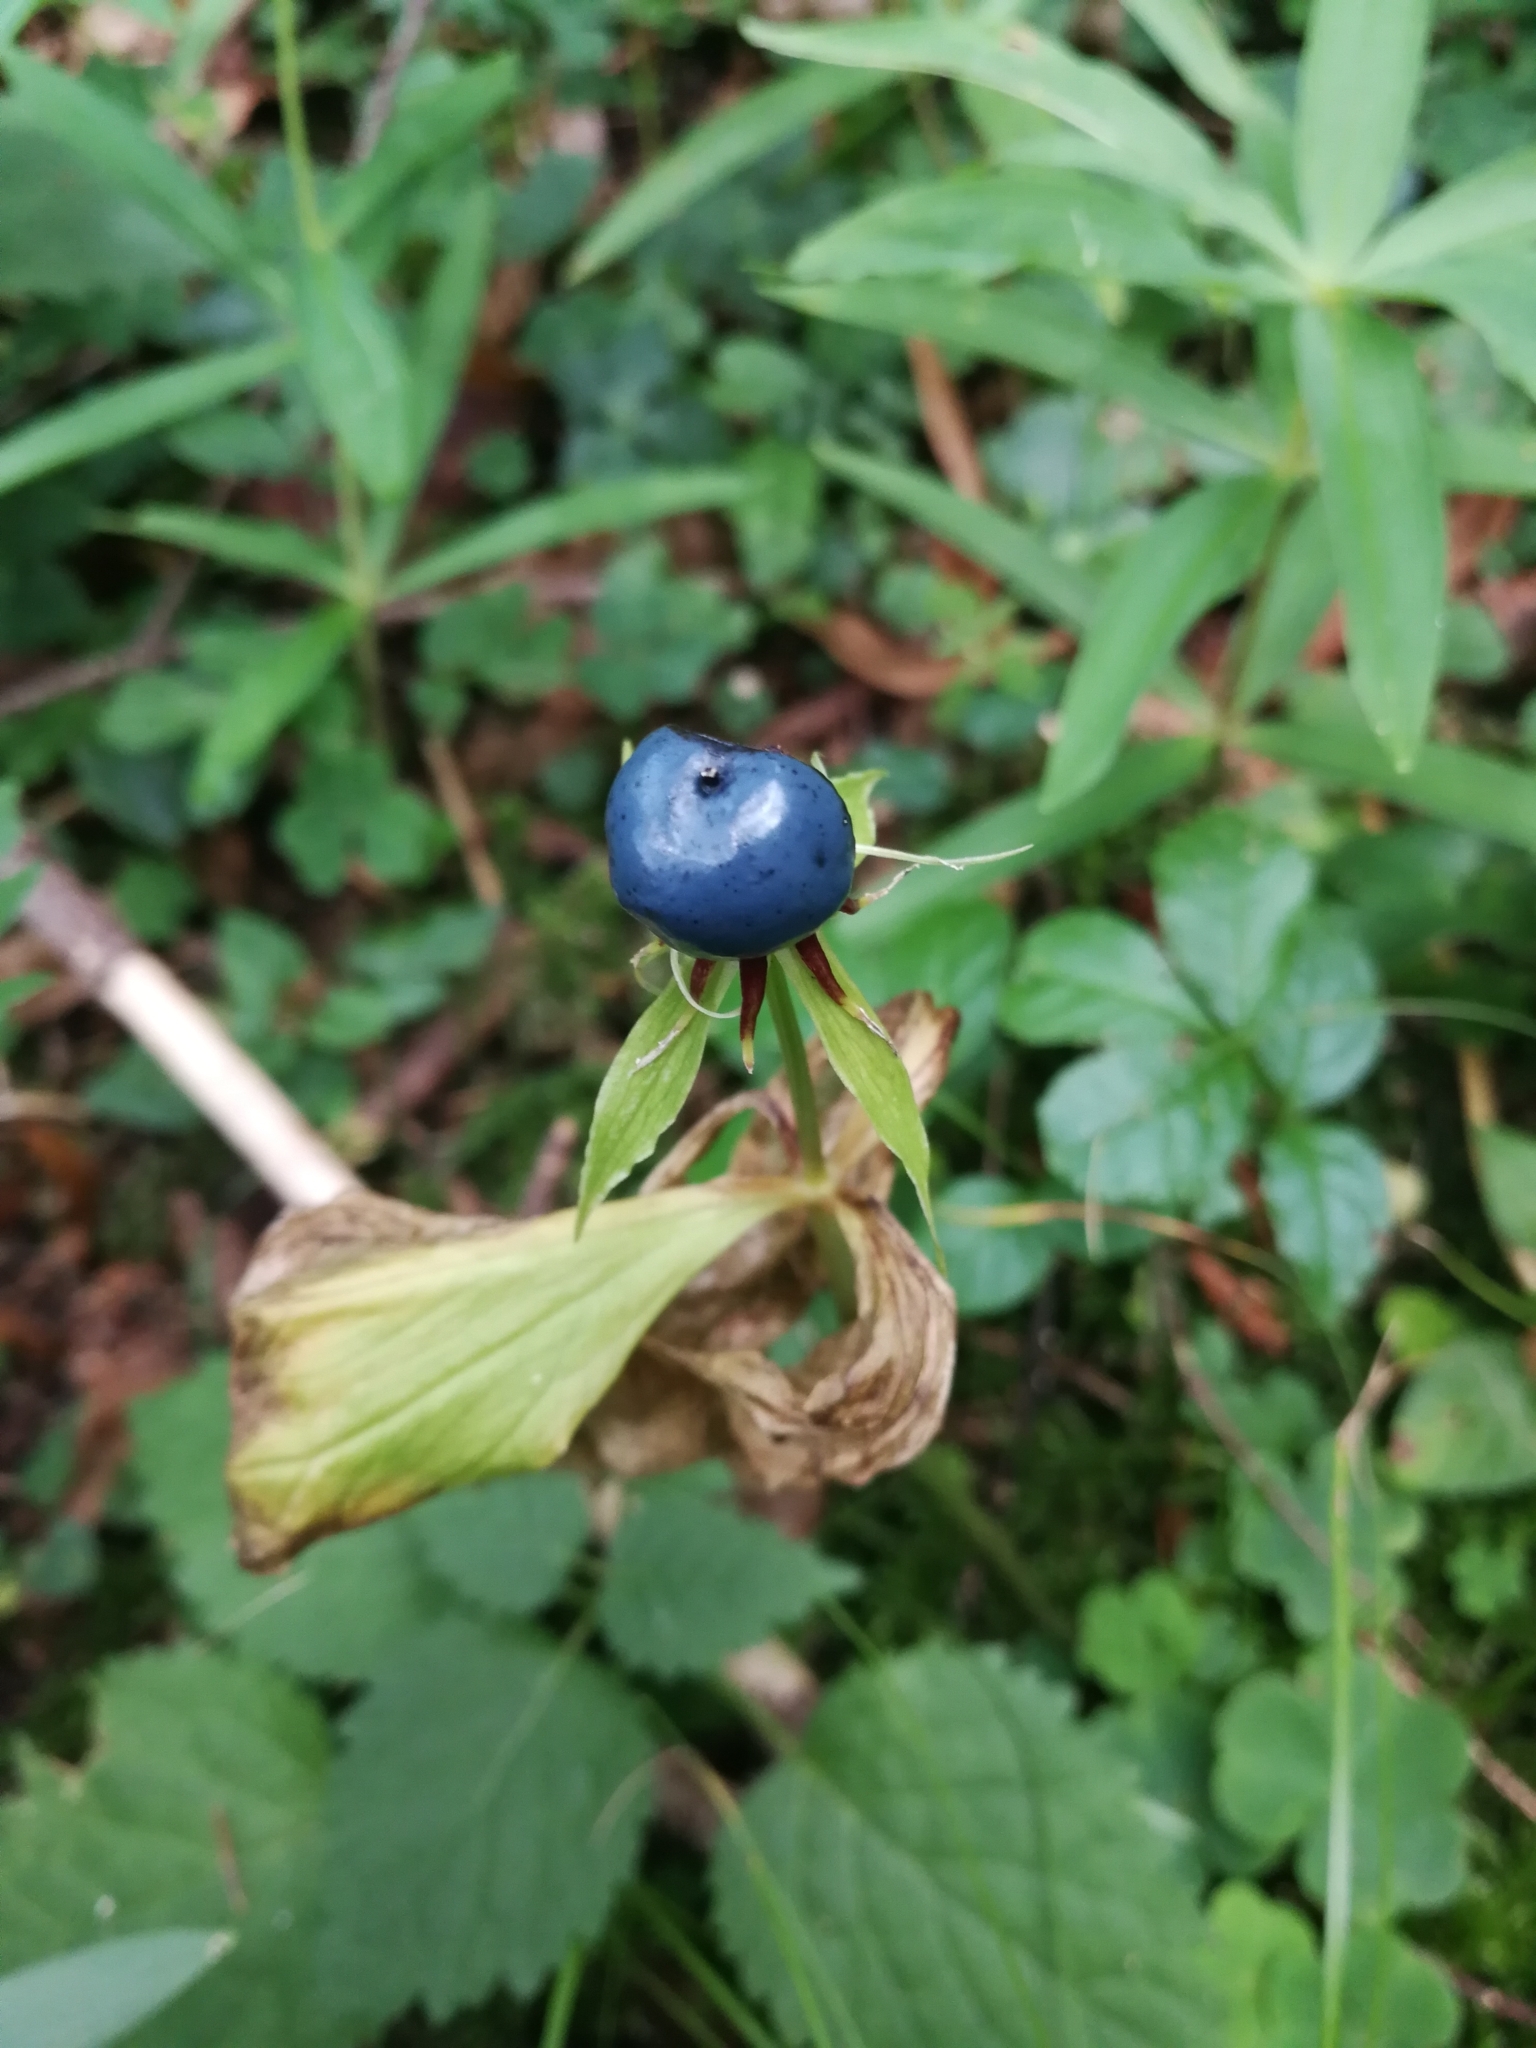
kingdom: Plantae
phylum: Tracheophyta
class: Liliopsida
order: Liliales
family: Melanthiaceae
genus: Paris
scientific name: Paris quadrifolia
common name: Herb-paris
